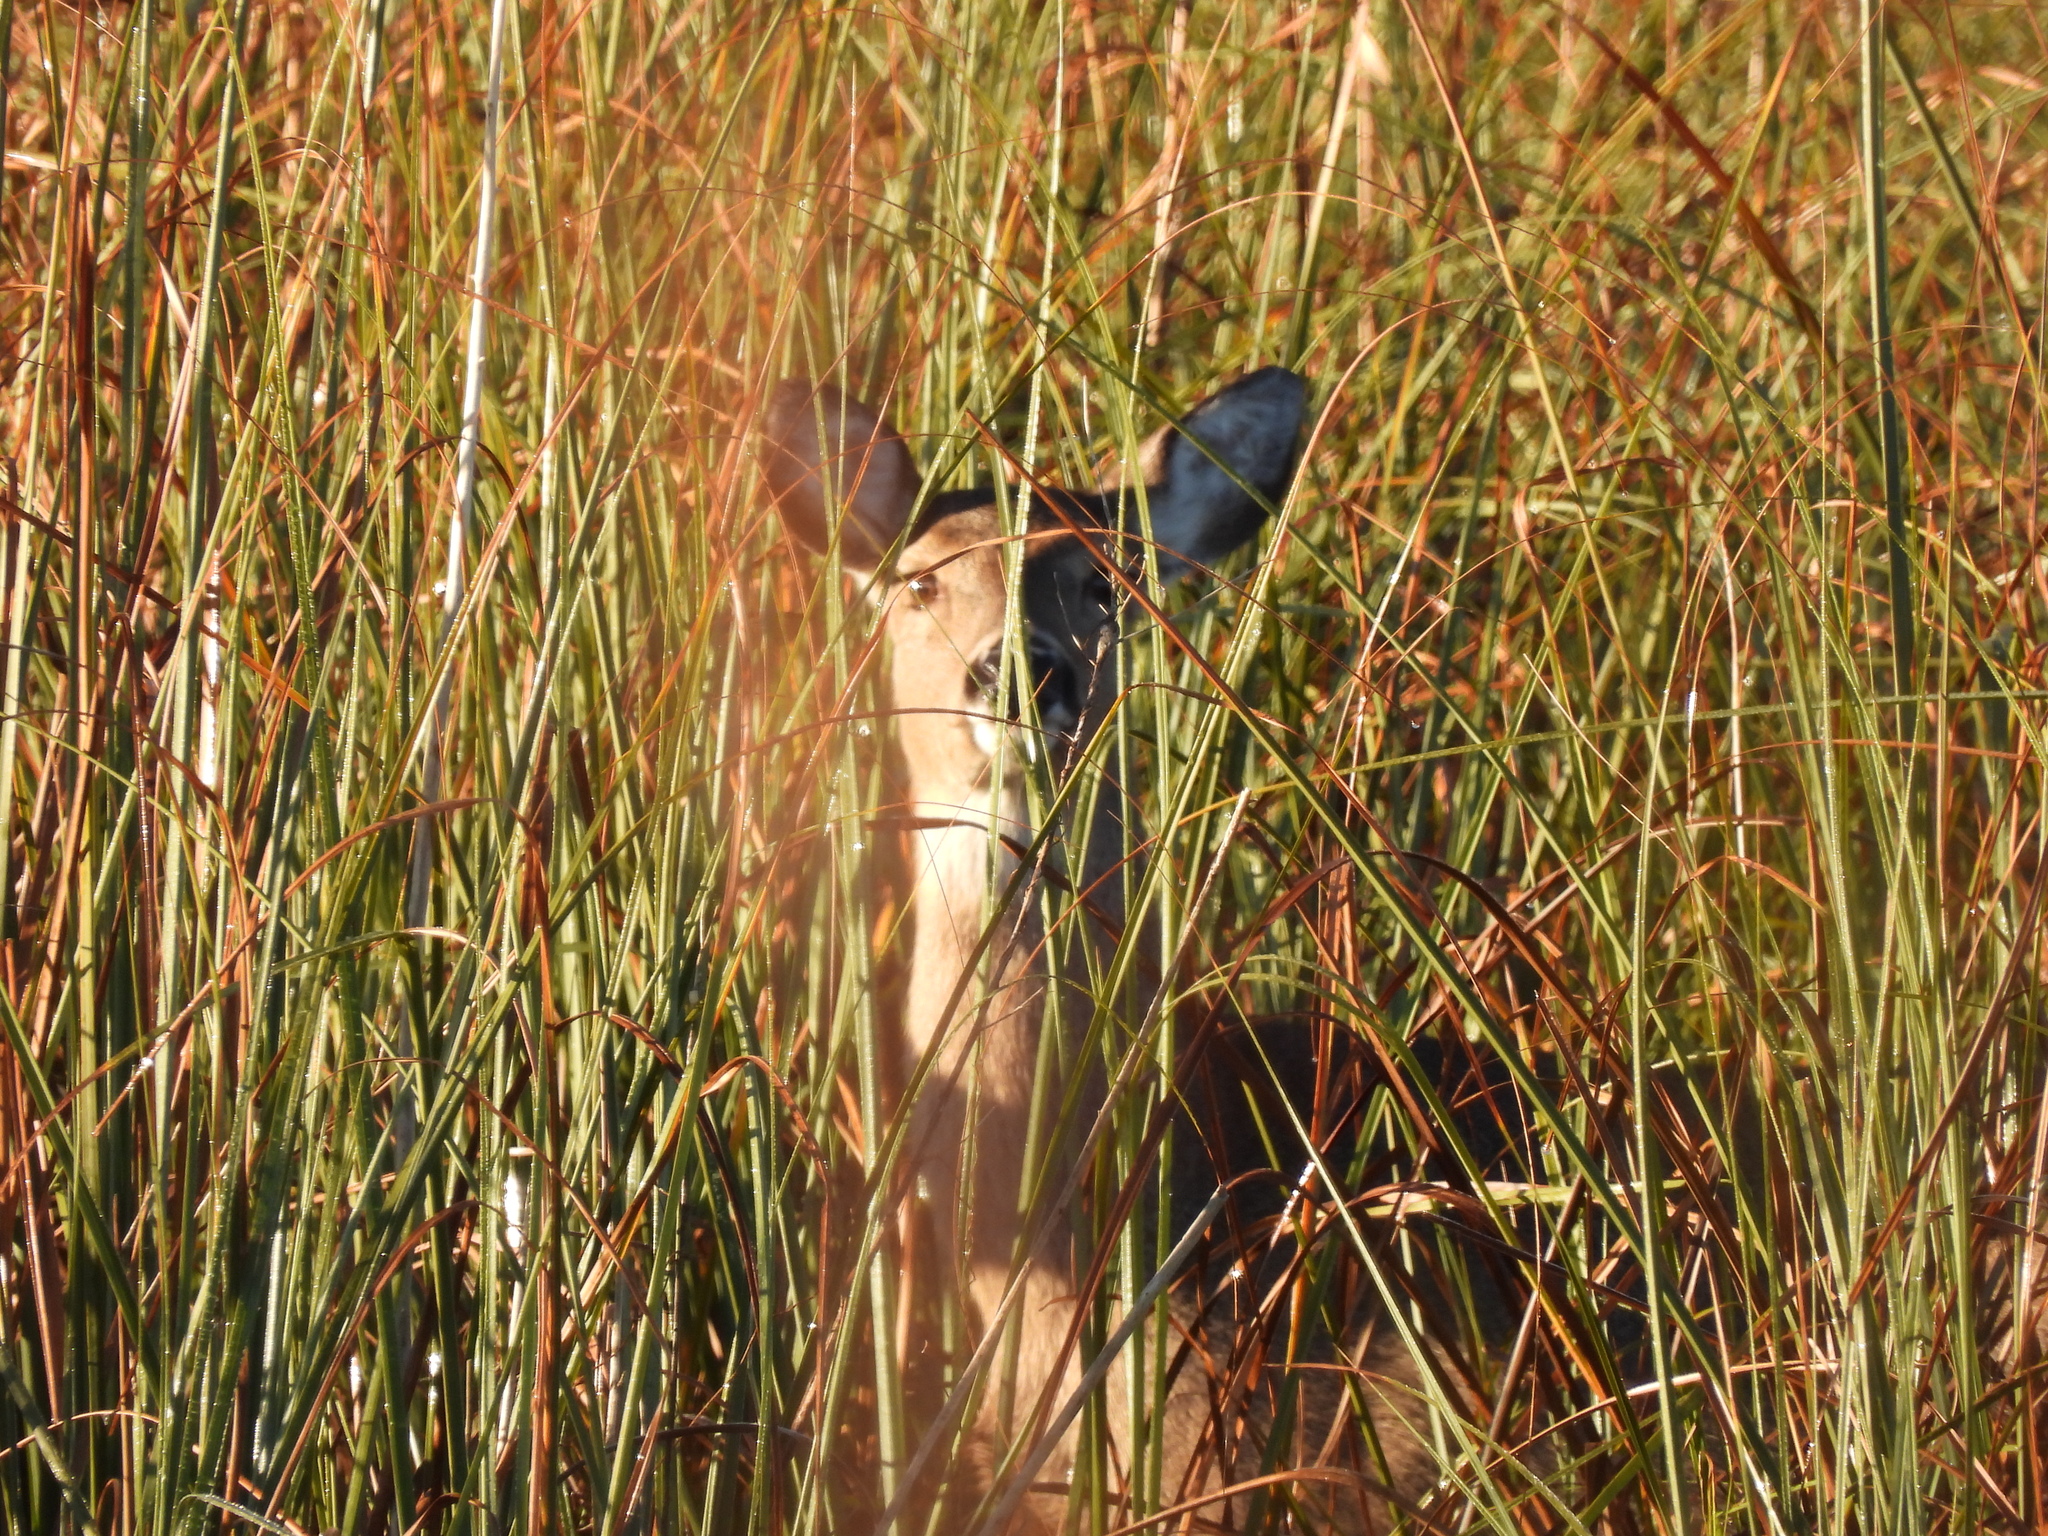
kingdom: Animalia
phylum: Chordata
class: Mammalia
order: Artiodactyla
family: Cervidae
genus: Odocoileus
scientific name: Odocoileus virginianus
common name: White-tailed deer
